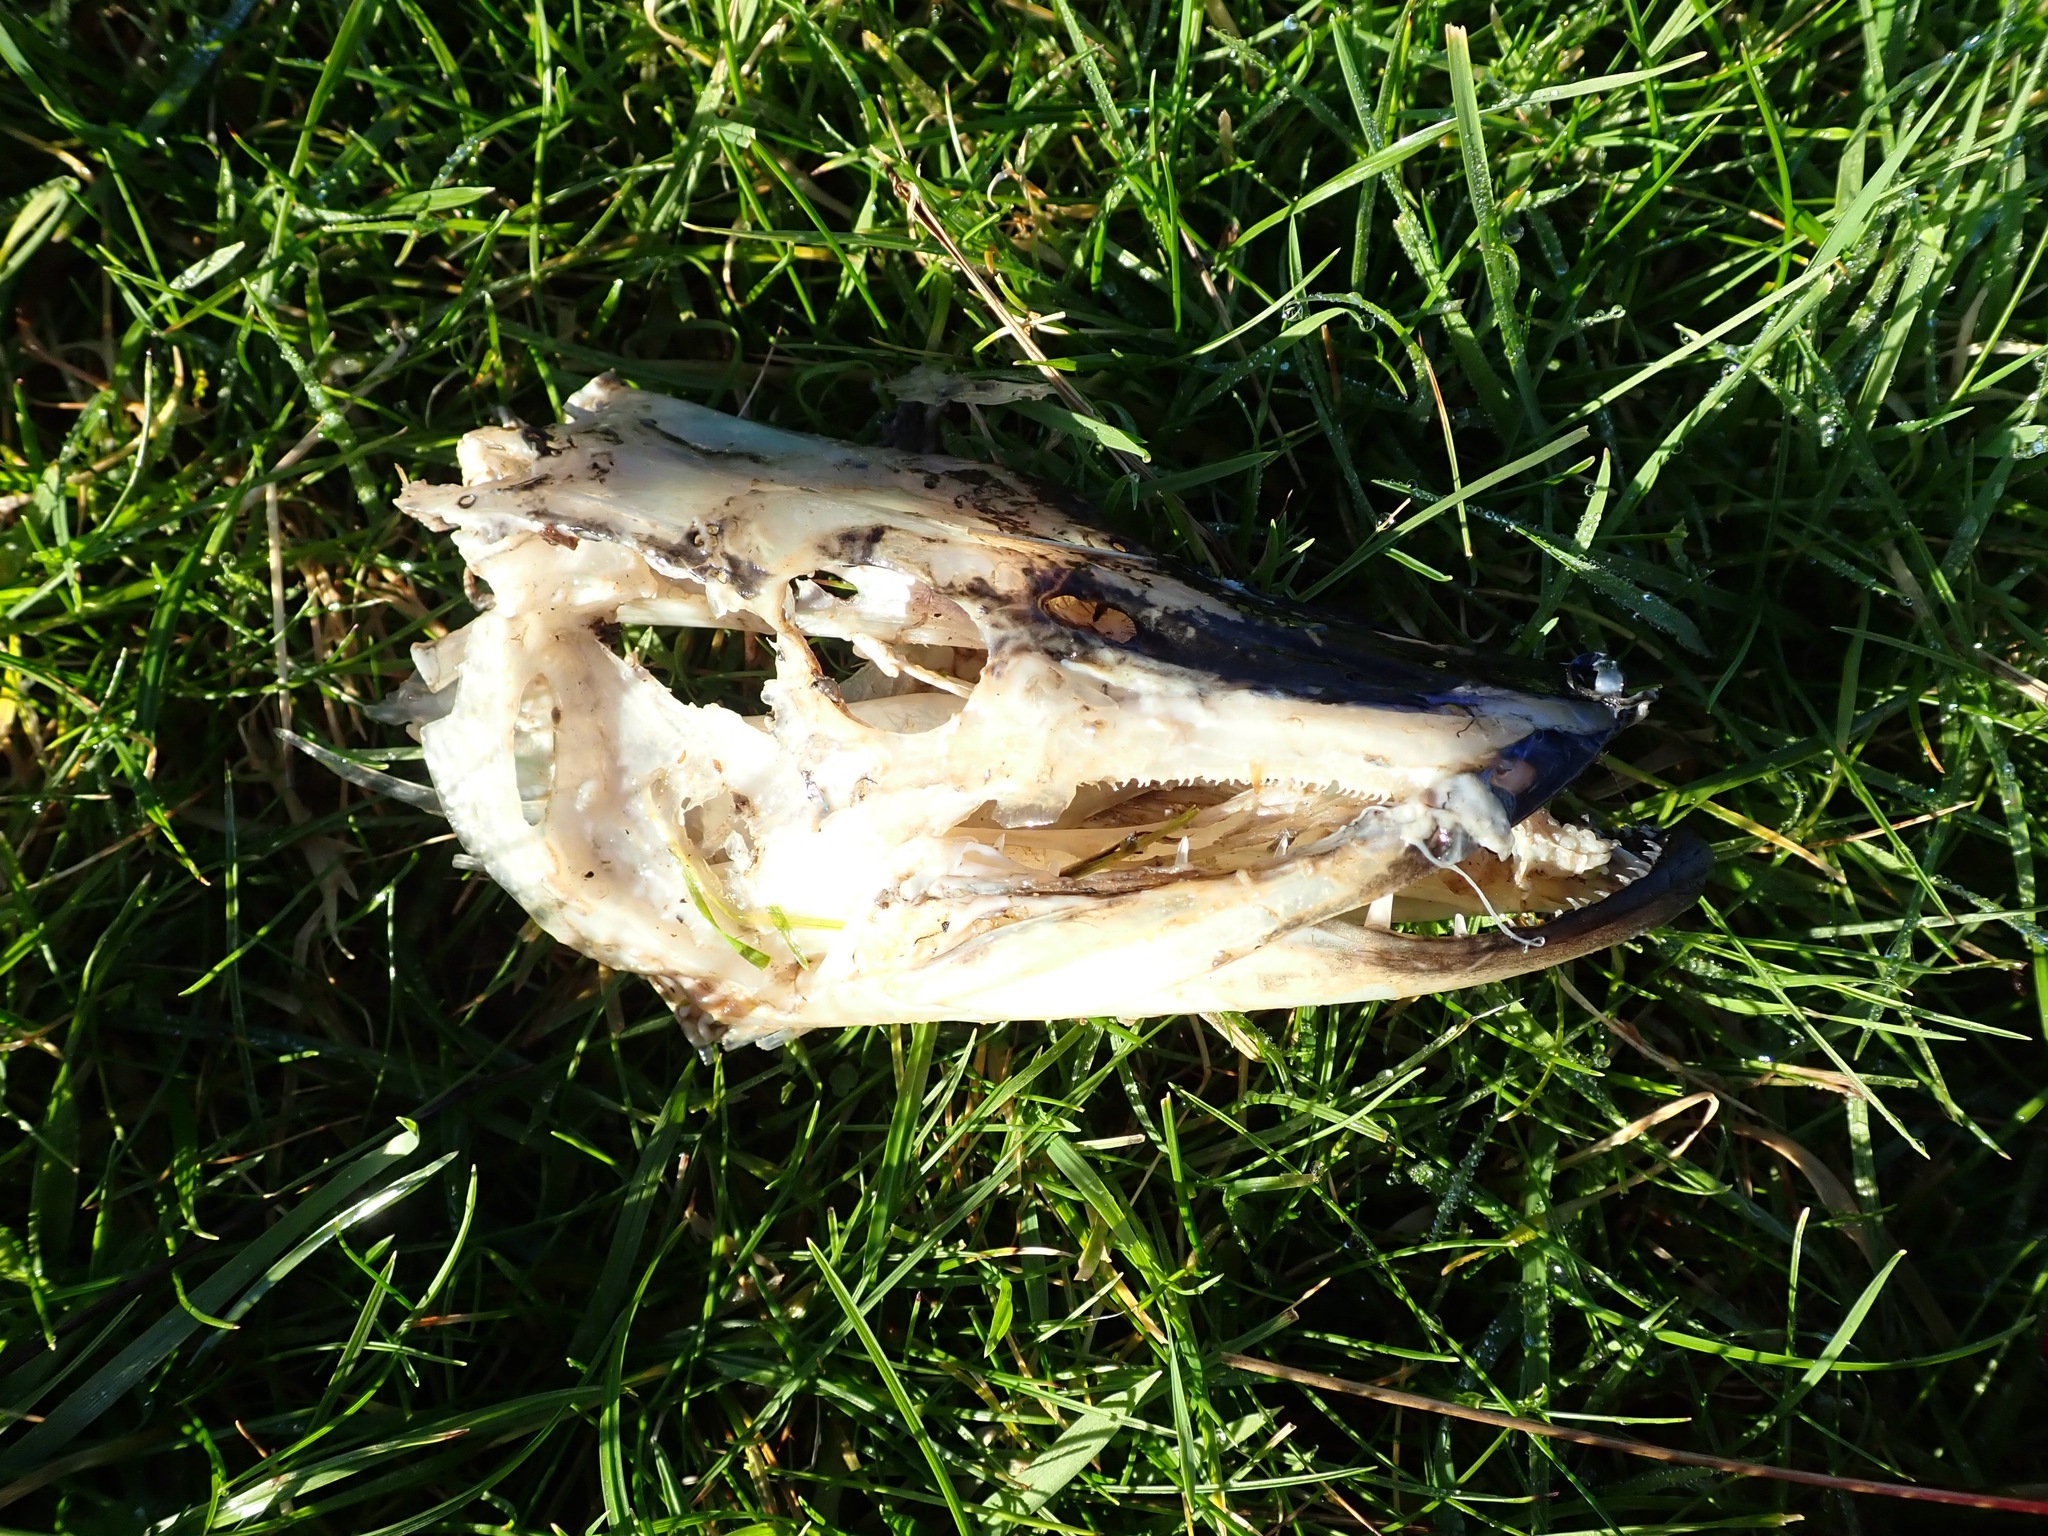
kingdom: Animalia
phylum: Chordata
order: Esociformes
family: Esocidae
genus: Esox
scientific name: Esox lucius
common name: Northern pike
